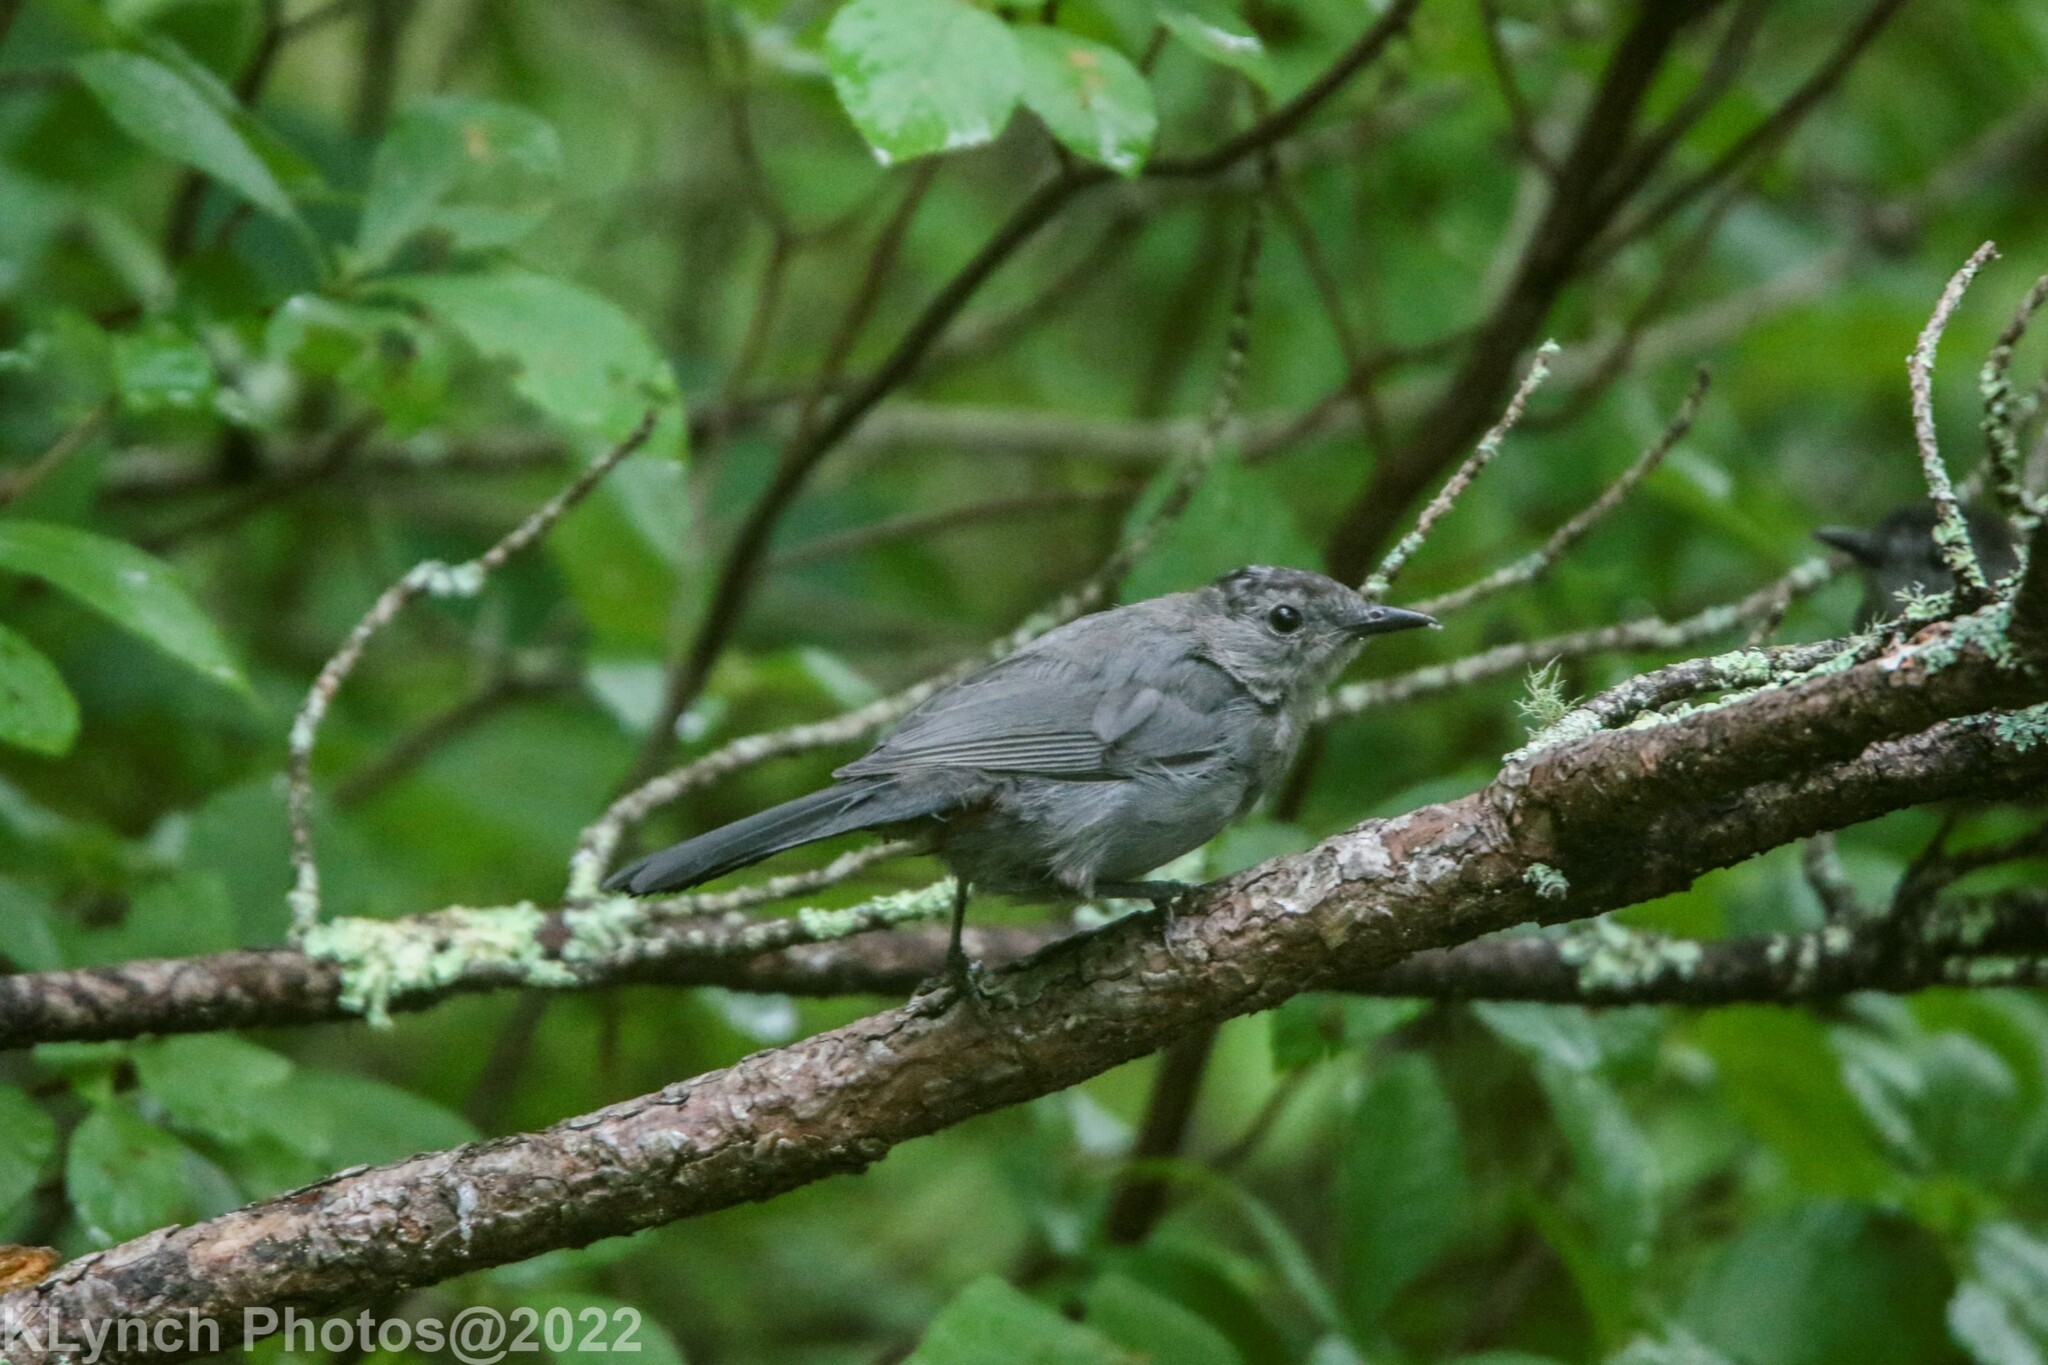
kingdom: Animalia
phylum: Chordata
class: Aves
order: Passeriformes
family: Mimidae
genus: Dumetella
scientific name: Dumetella carolinensis
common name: Gray catbird
